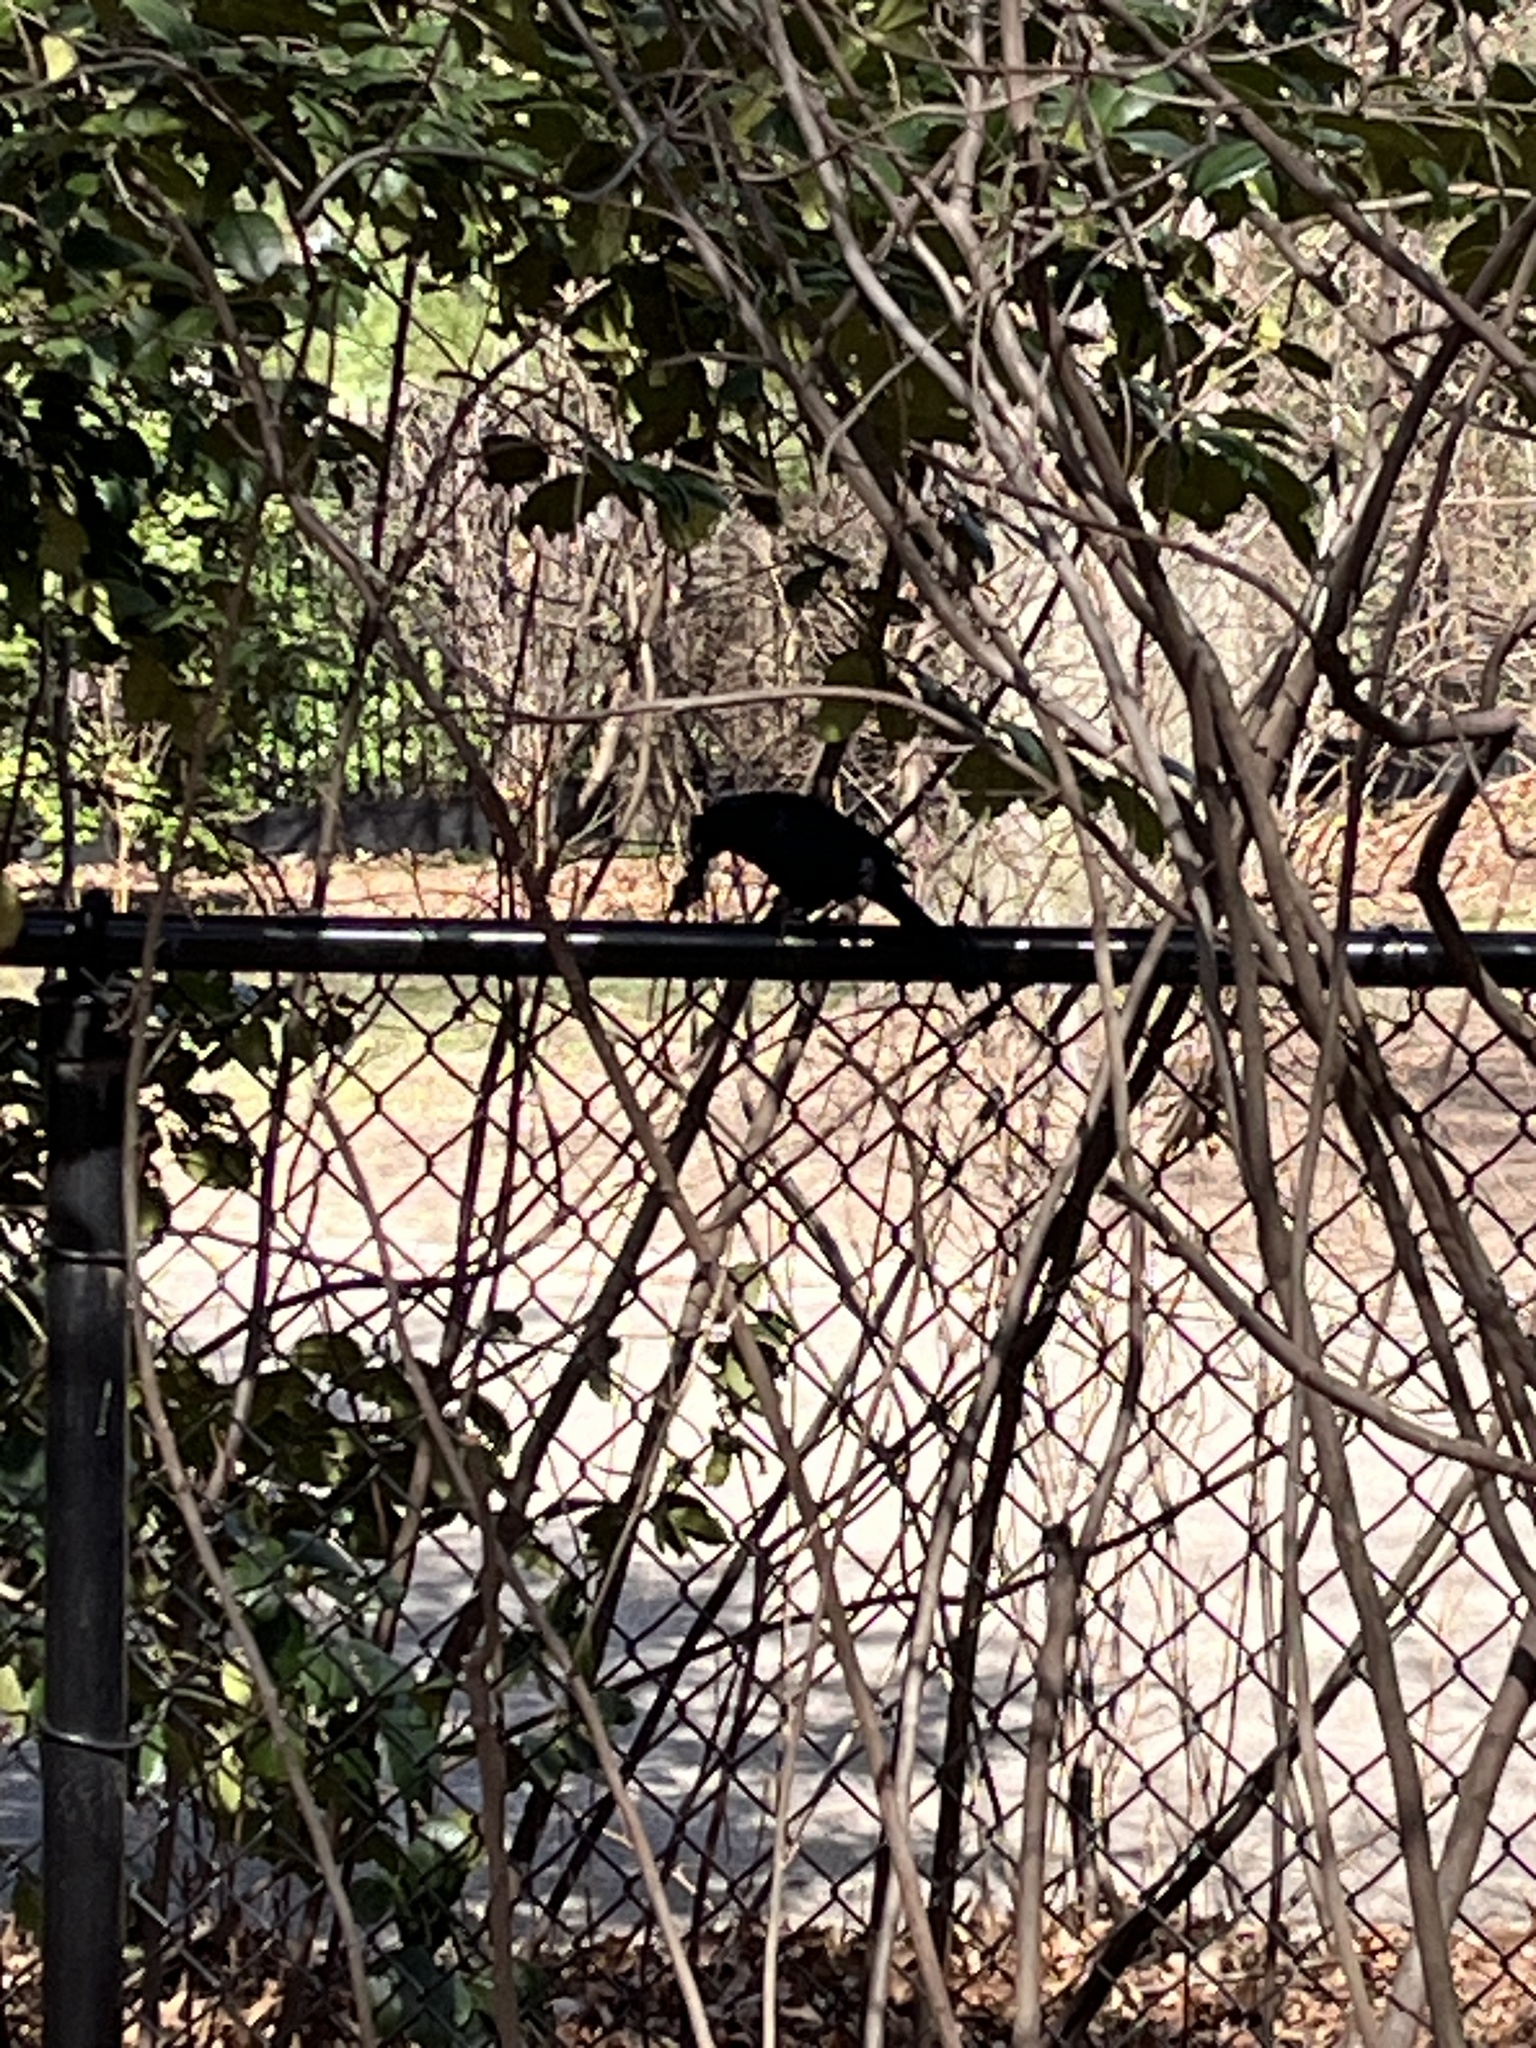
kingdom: Animalia
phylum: Chordata
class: Aves
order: Passeriformes
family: Icteridae
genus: Quiscalus
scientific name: Quiscalus quiscula
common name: Common grackle
